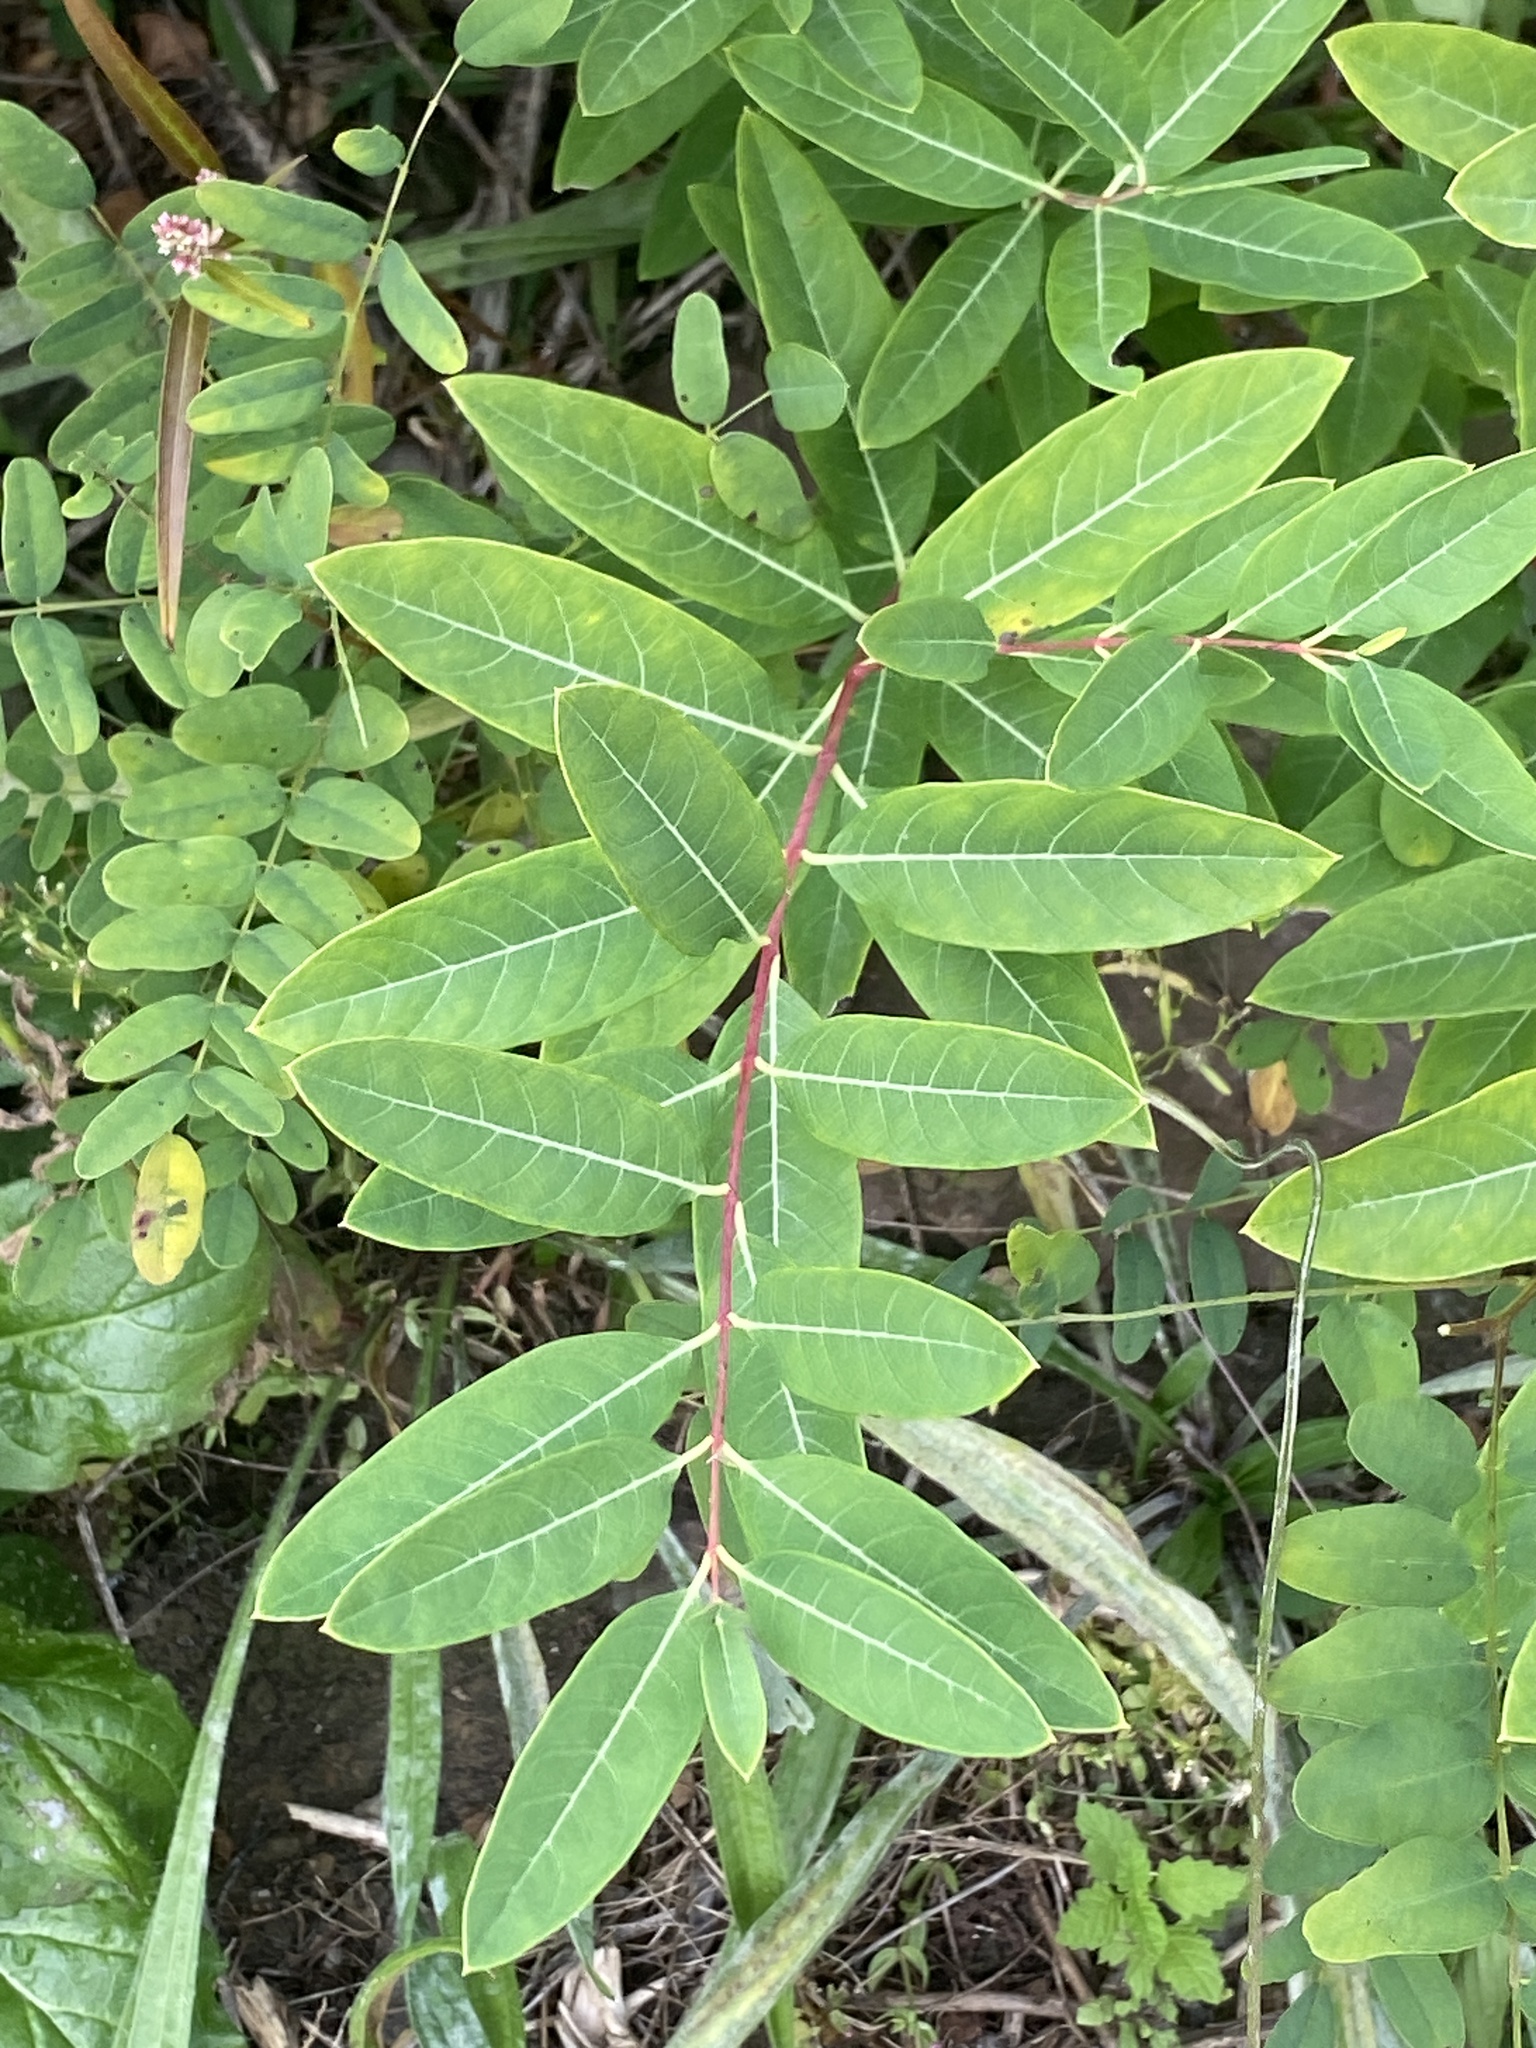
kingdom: Plantae
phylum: Tracheophyta
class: Magnoliopsida
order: Gentianales
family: Apocynaceae
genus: Apocynum
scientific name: Apocynum cannabinum
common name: Hemp dogbane
